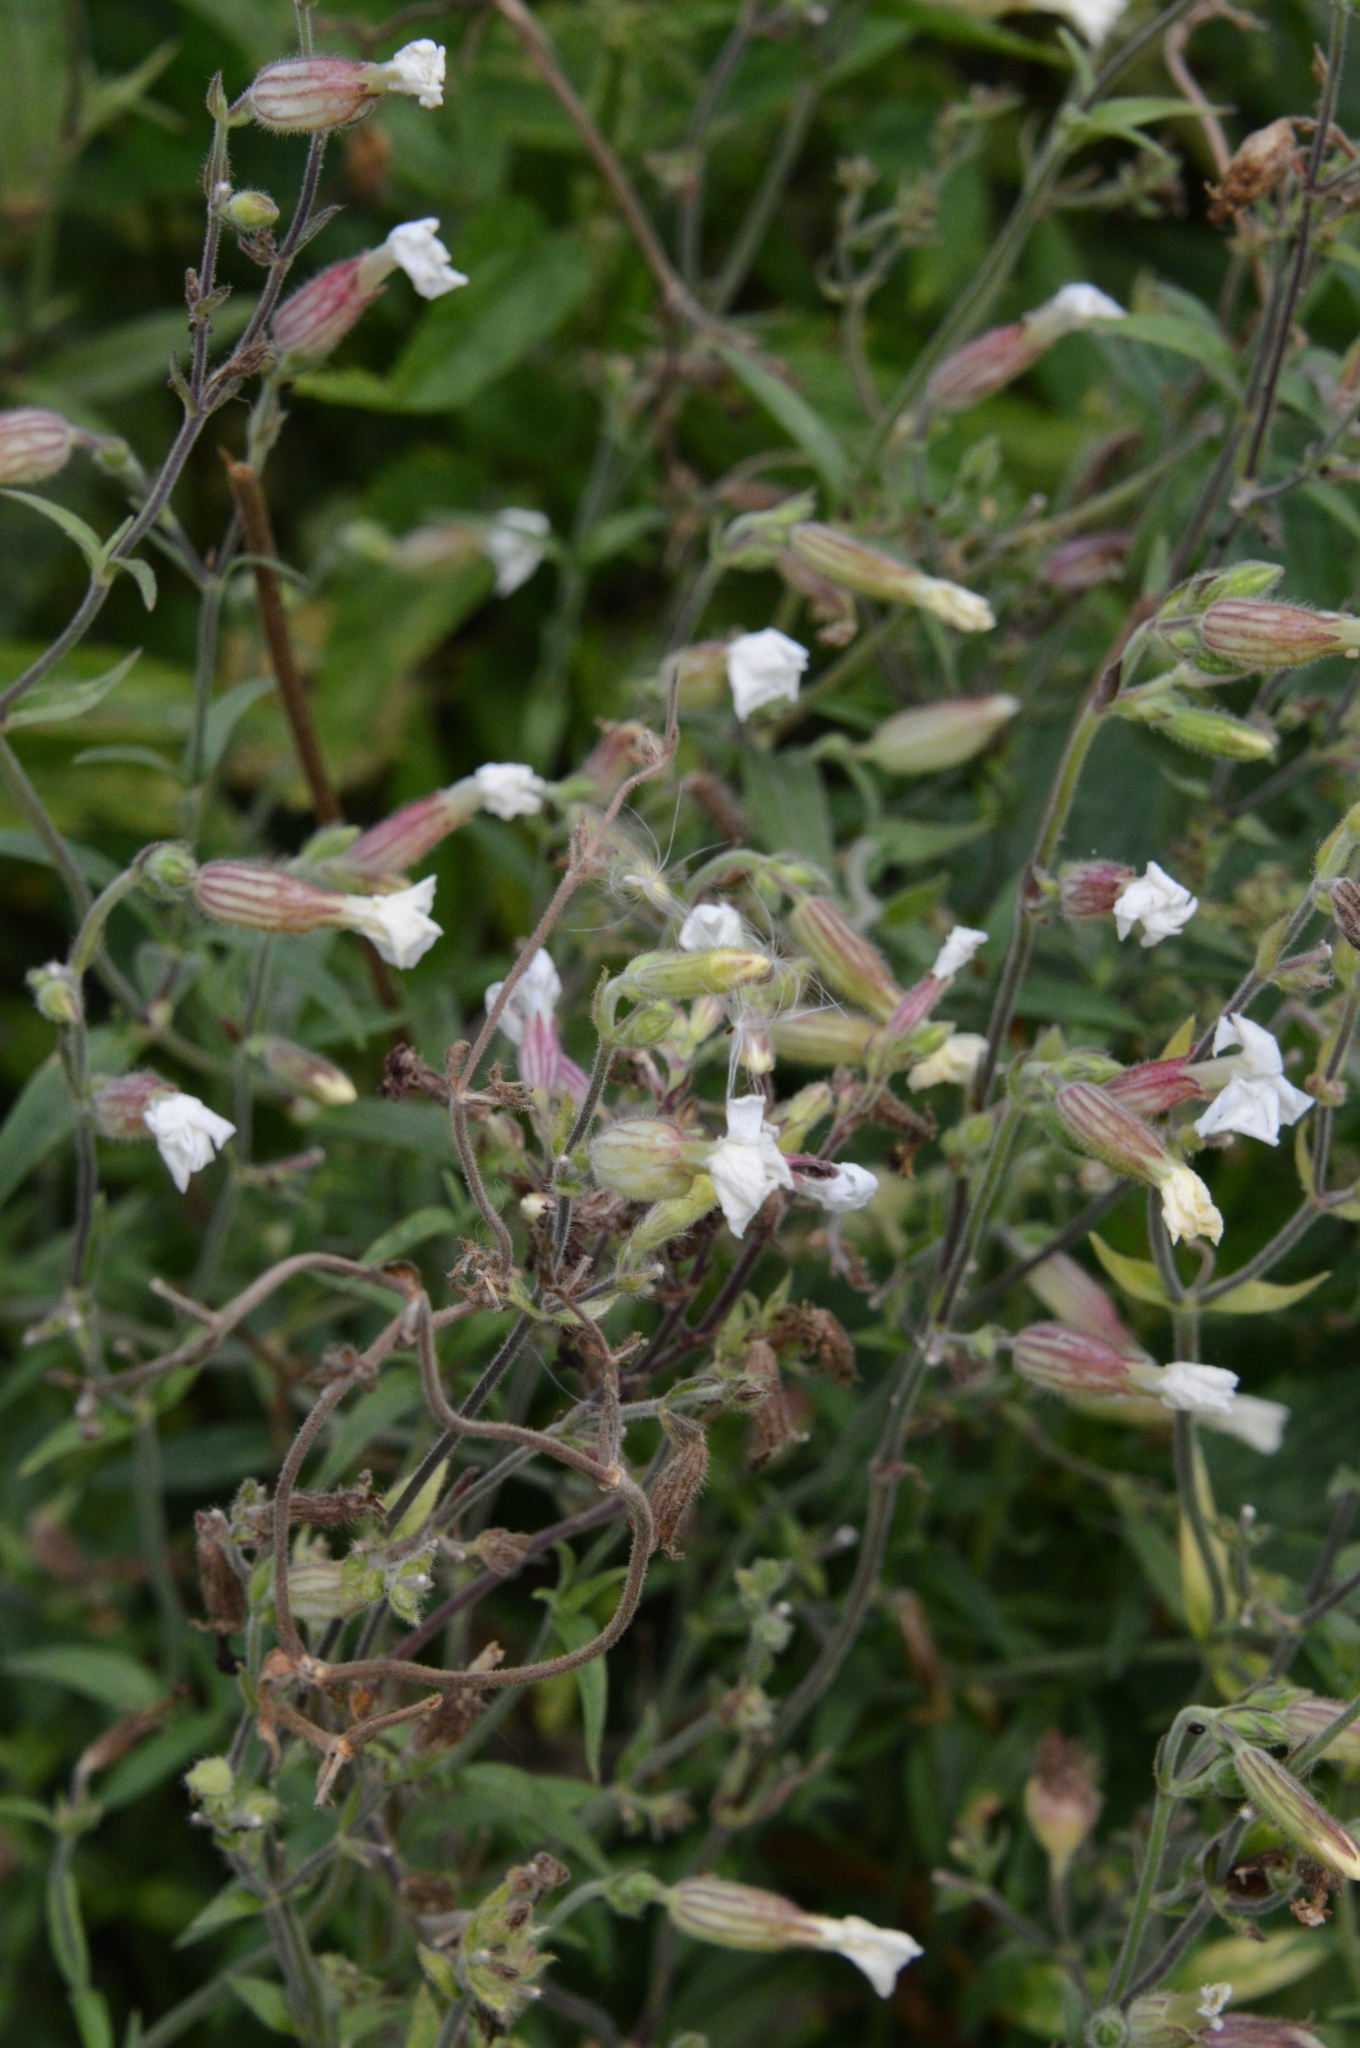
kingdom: Plantae
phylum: Tracheophyta
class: Magnoliopsida
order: Caryophyllales
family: Caryophyllaceae
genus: Silene
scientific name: Silene latifolia
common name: White campion
